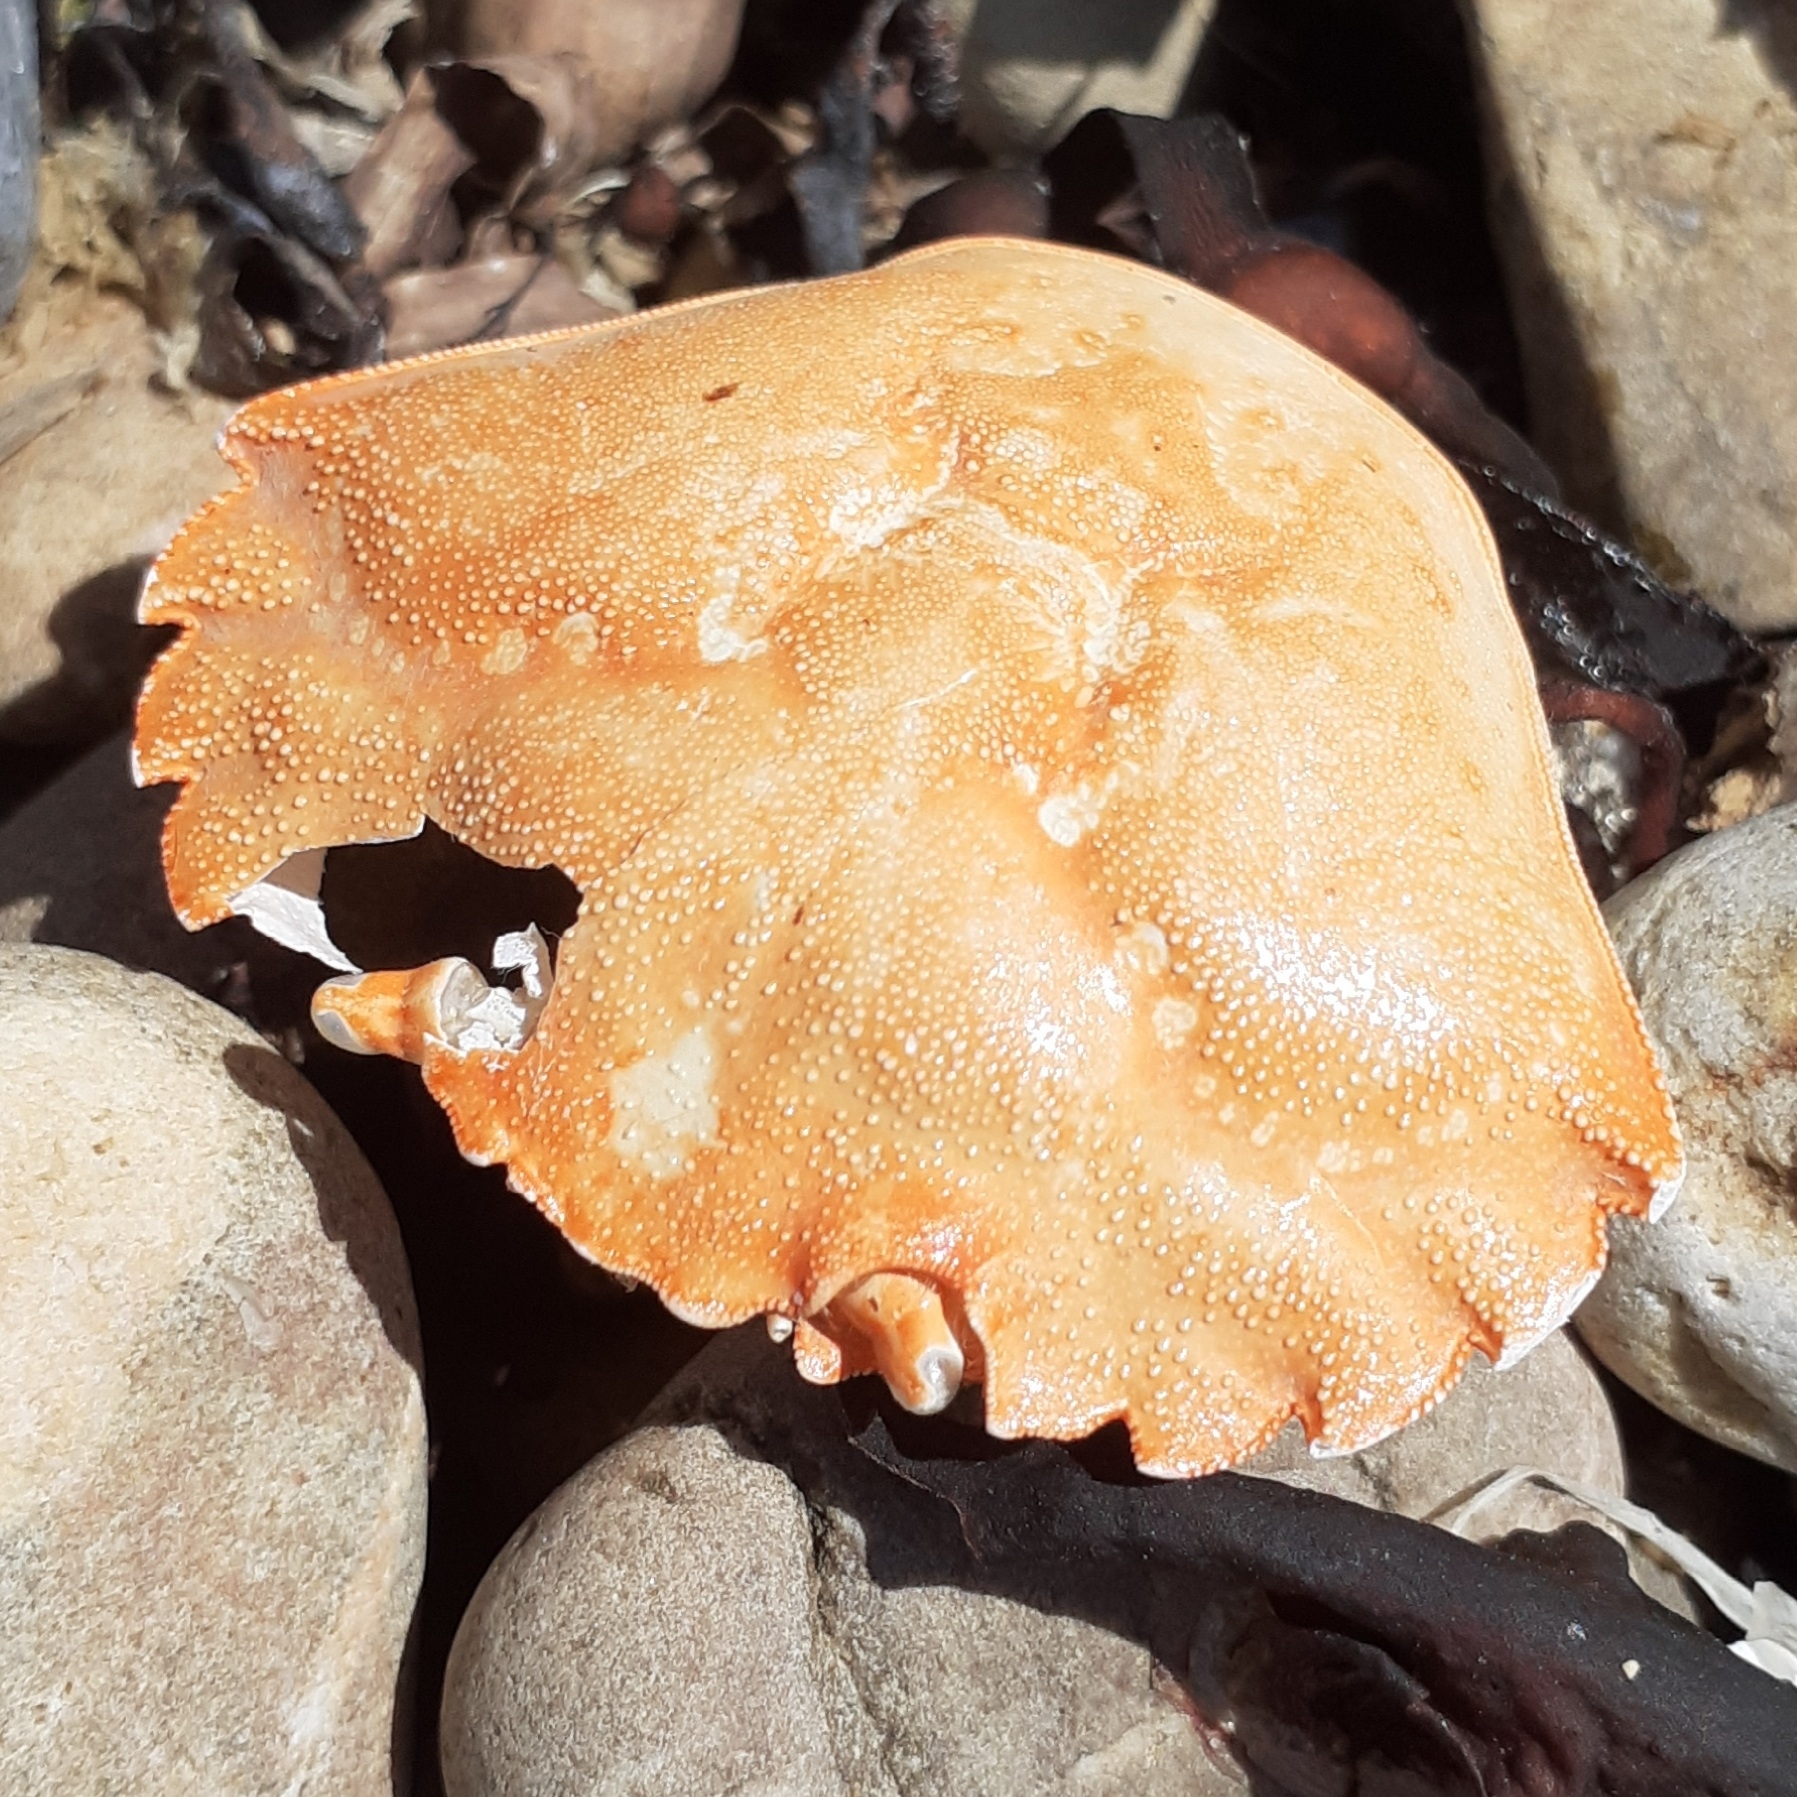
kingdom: Animalia
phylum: Arthropoda
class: Malacostraca
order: Decapoda
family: Carcinidae
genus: Carcinus
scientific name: Carcinus maenas
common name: European green crab
